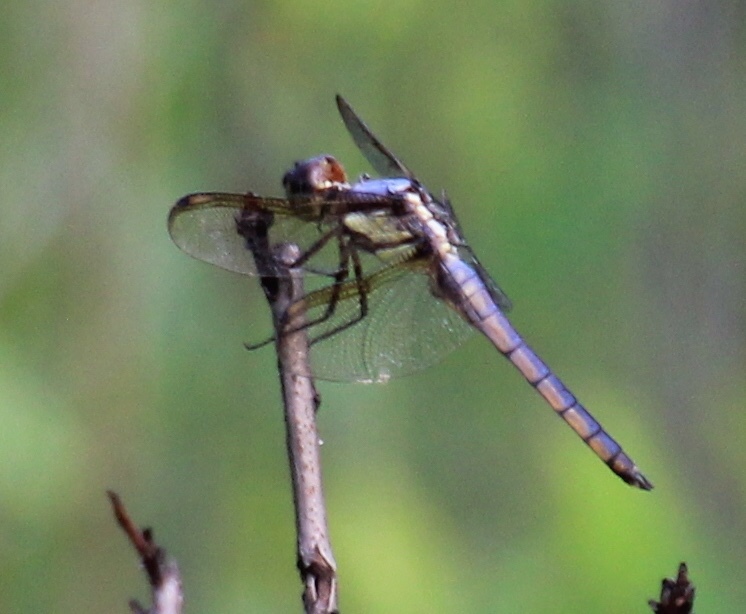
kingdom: Animalia
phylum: Arthropoda
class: Insecta
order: Odonata
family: Libellulidae
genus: Libellula
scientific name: Libellula flavida
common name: Yellow-sided skimmer
